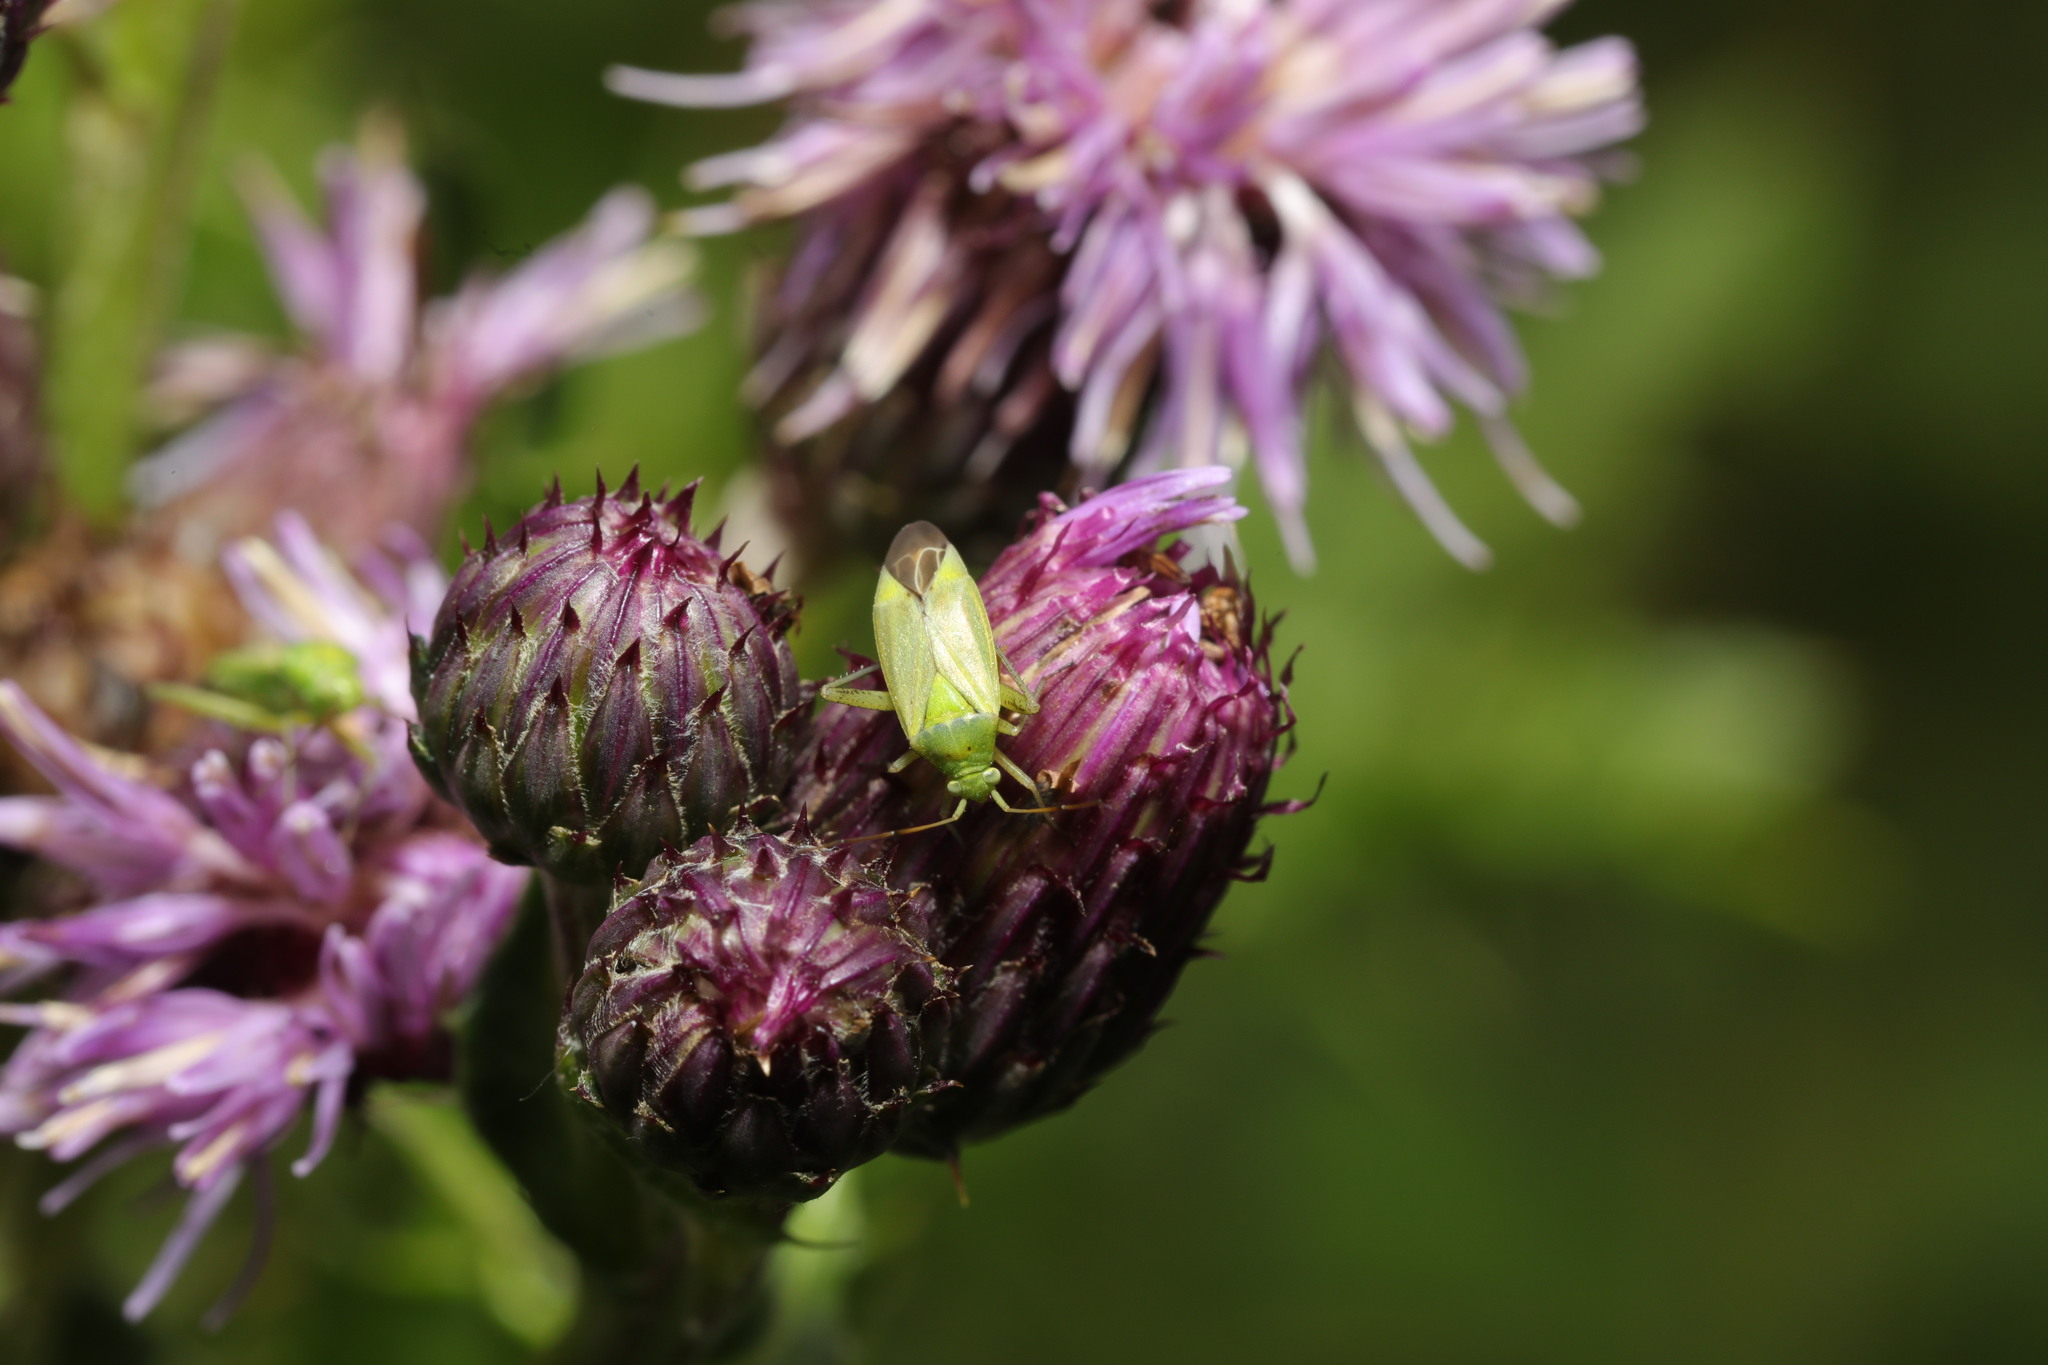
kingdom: Animalia
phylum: Arthropoda
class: Insecta
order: Hemiptera
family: Miridae
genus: Closterotomus
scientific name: Closterotomus norvegicus
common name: Plant bug
